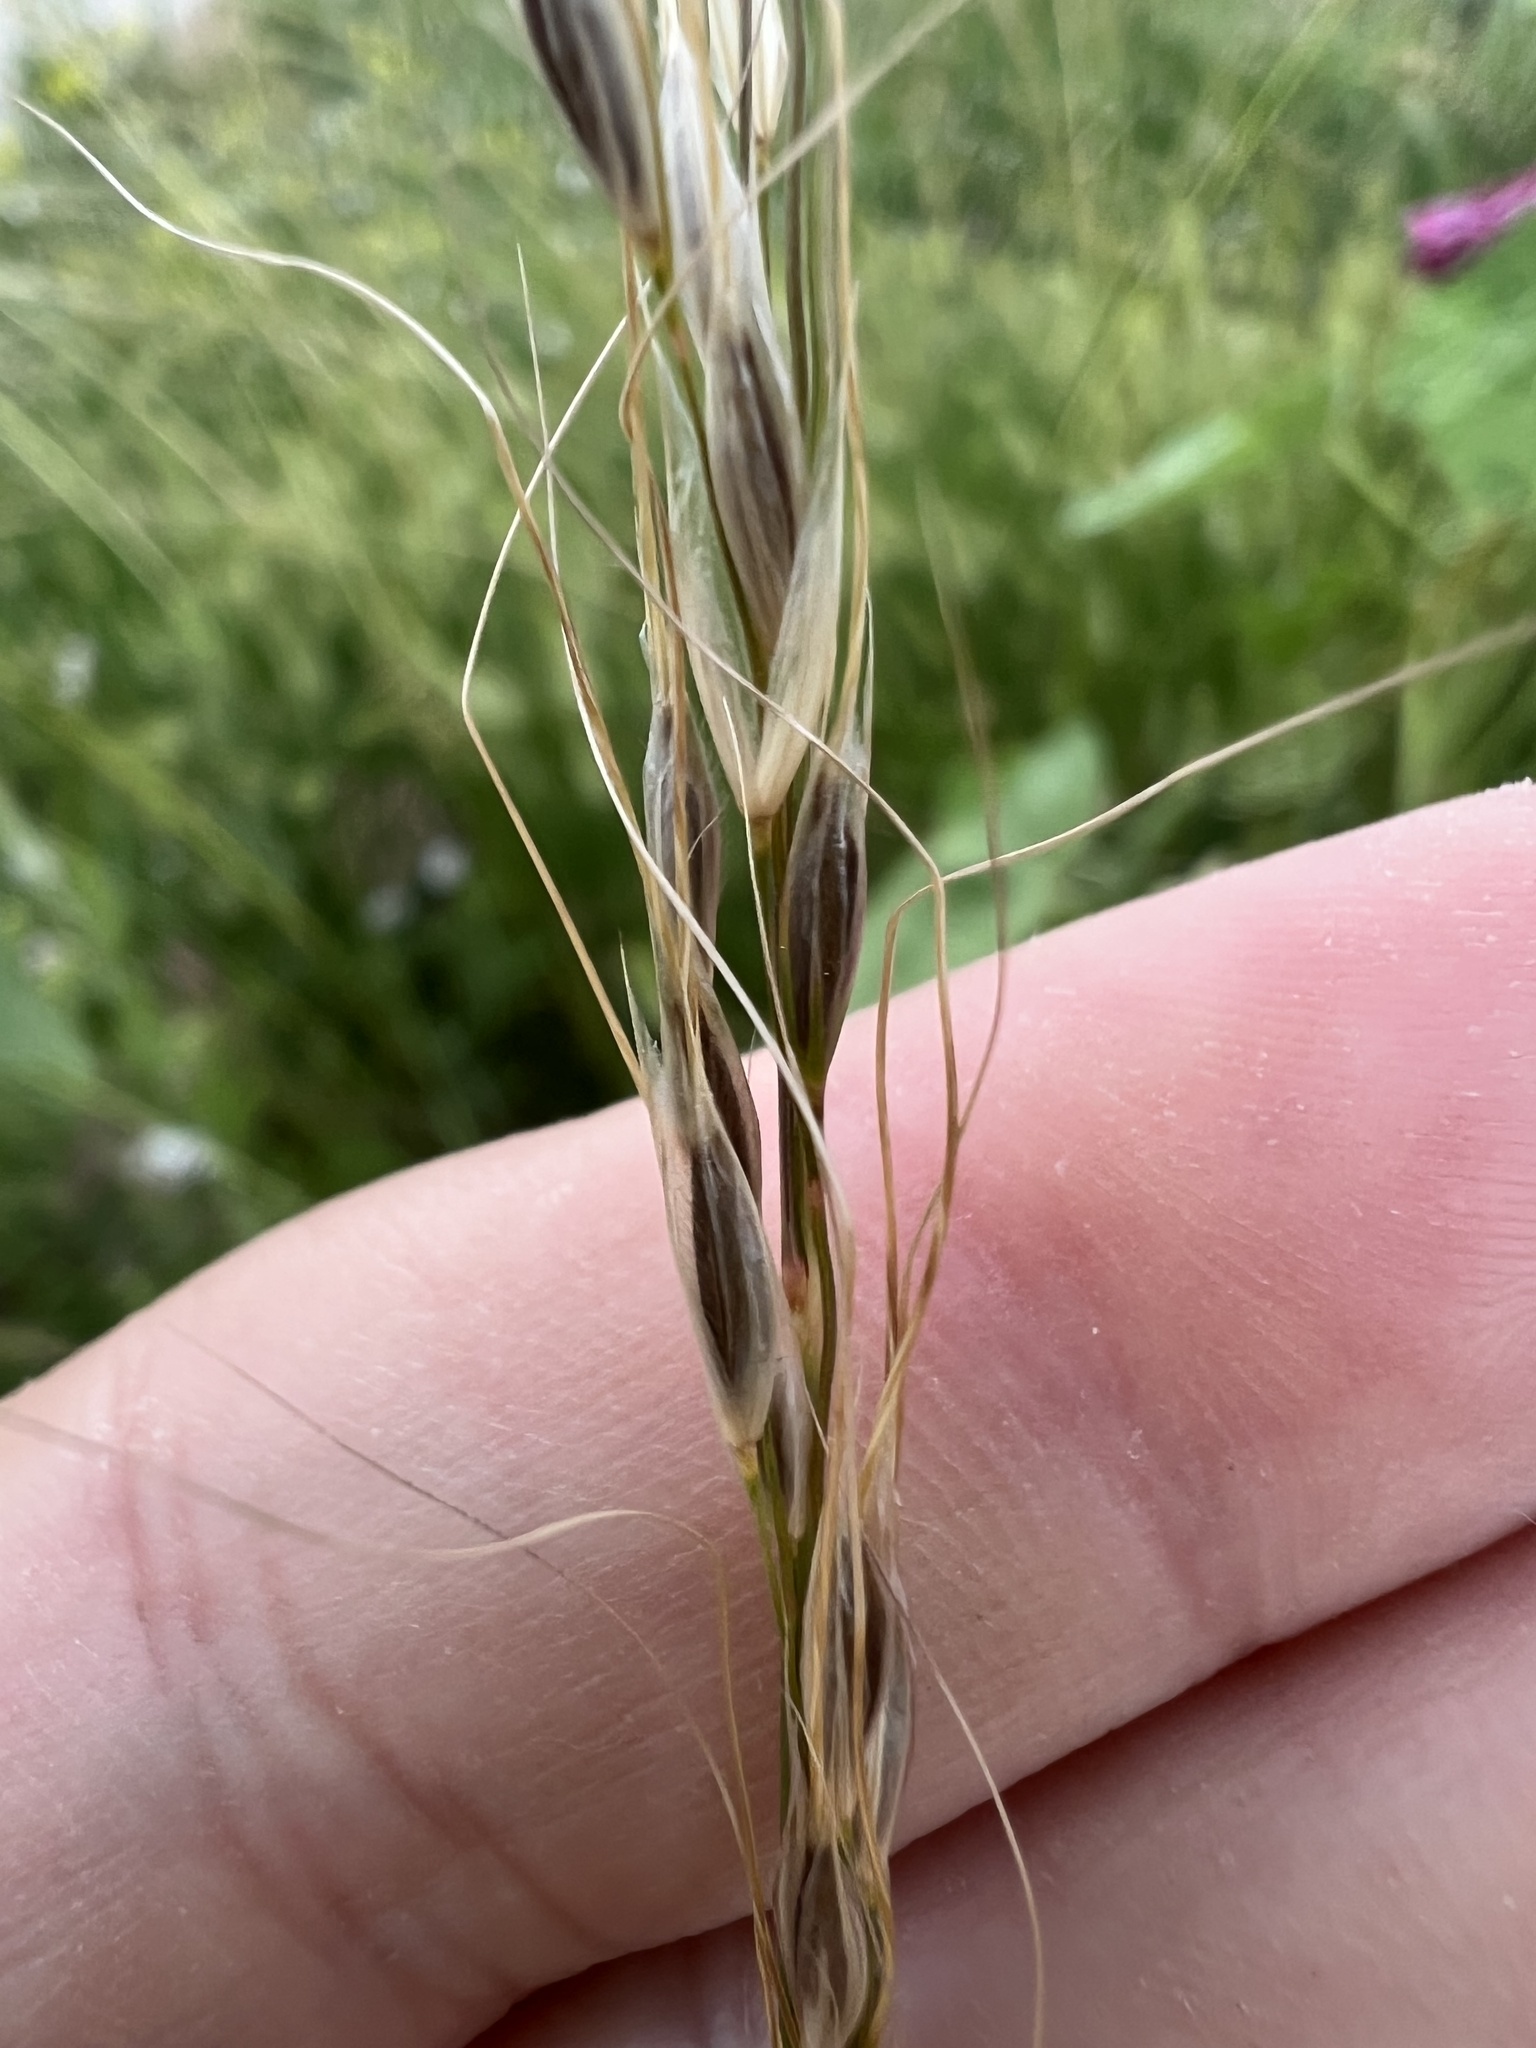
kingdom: Plantae
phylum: Tracheophyta
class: Liliopsida
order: Poales
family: Poaceae
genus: Nassella
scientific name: Nassella viridula
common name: Green needlegrass
